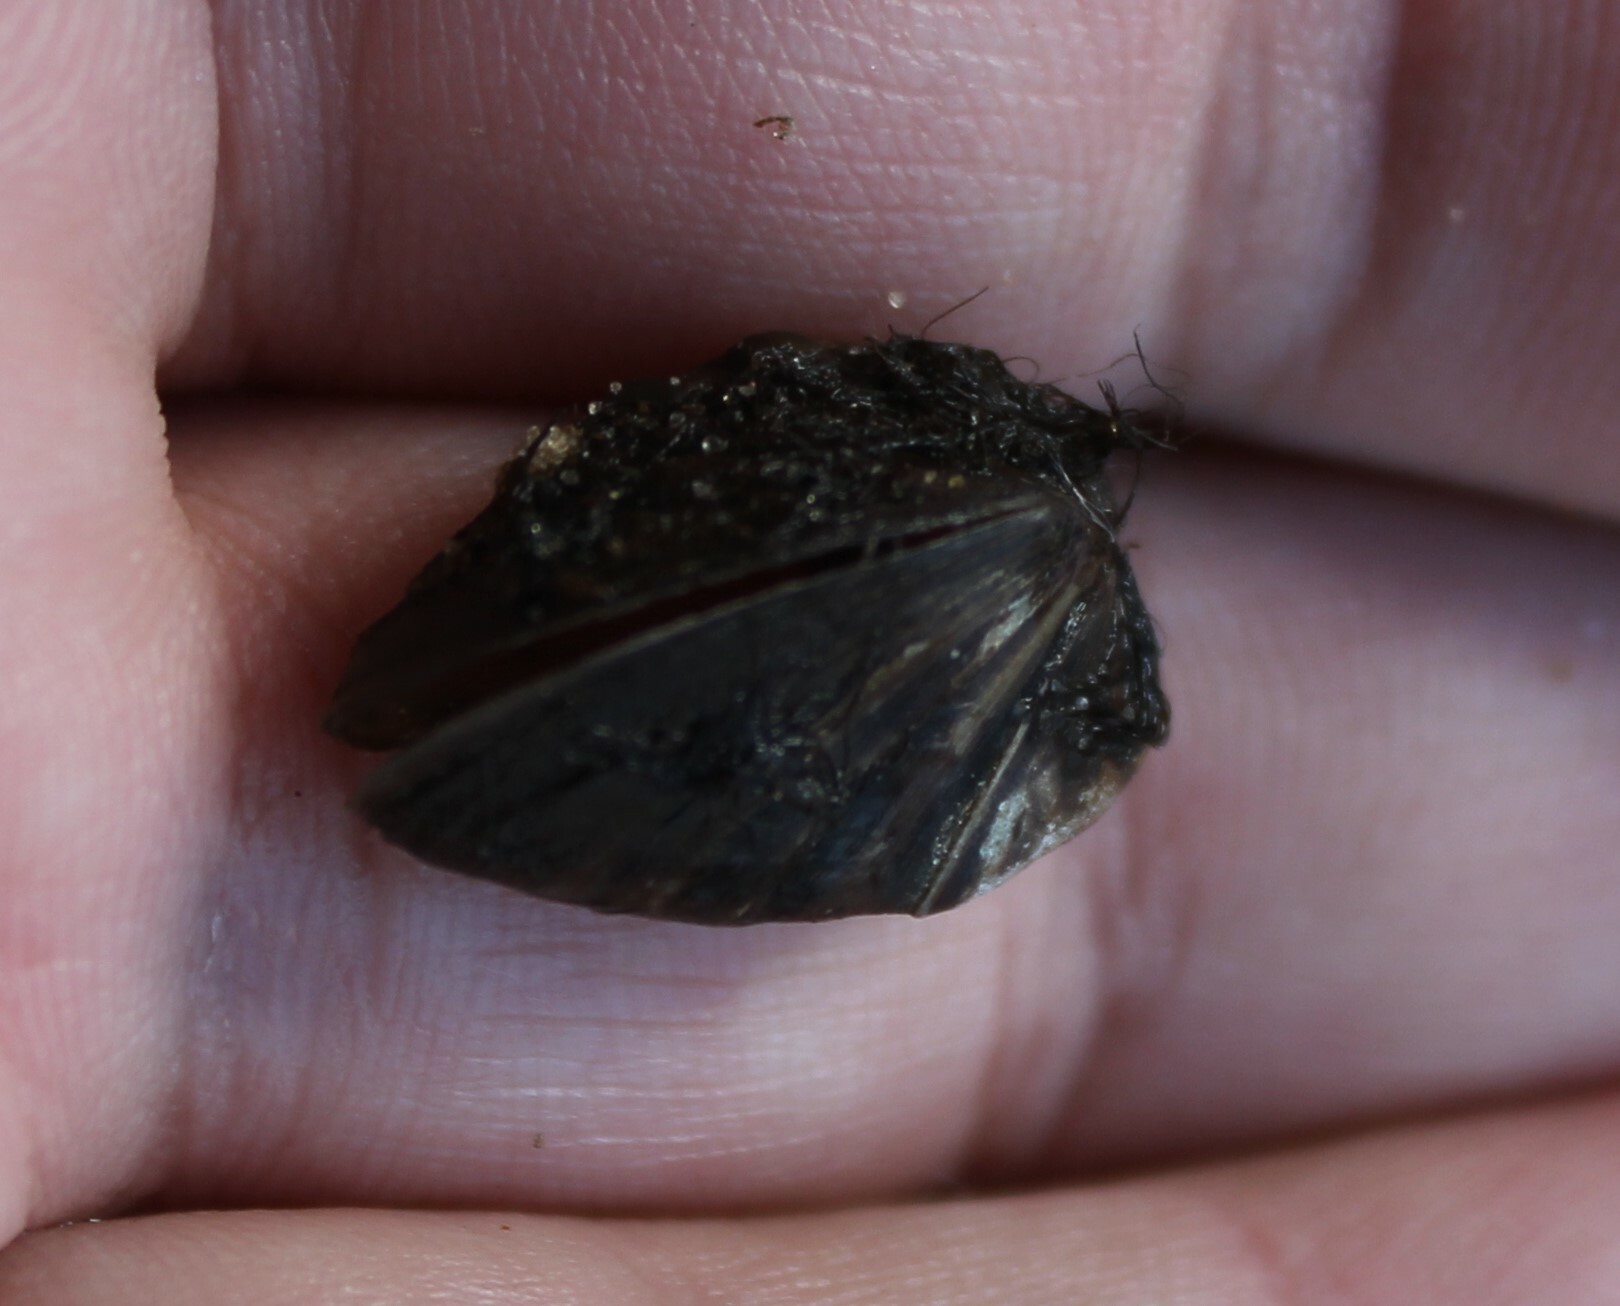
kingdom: Animalia
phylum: Mollusca
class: Bivalvia
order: Myida
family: Dreissenidae
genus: Dreissena
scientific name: Dreissena polymorpha
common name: Zebra mussel
